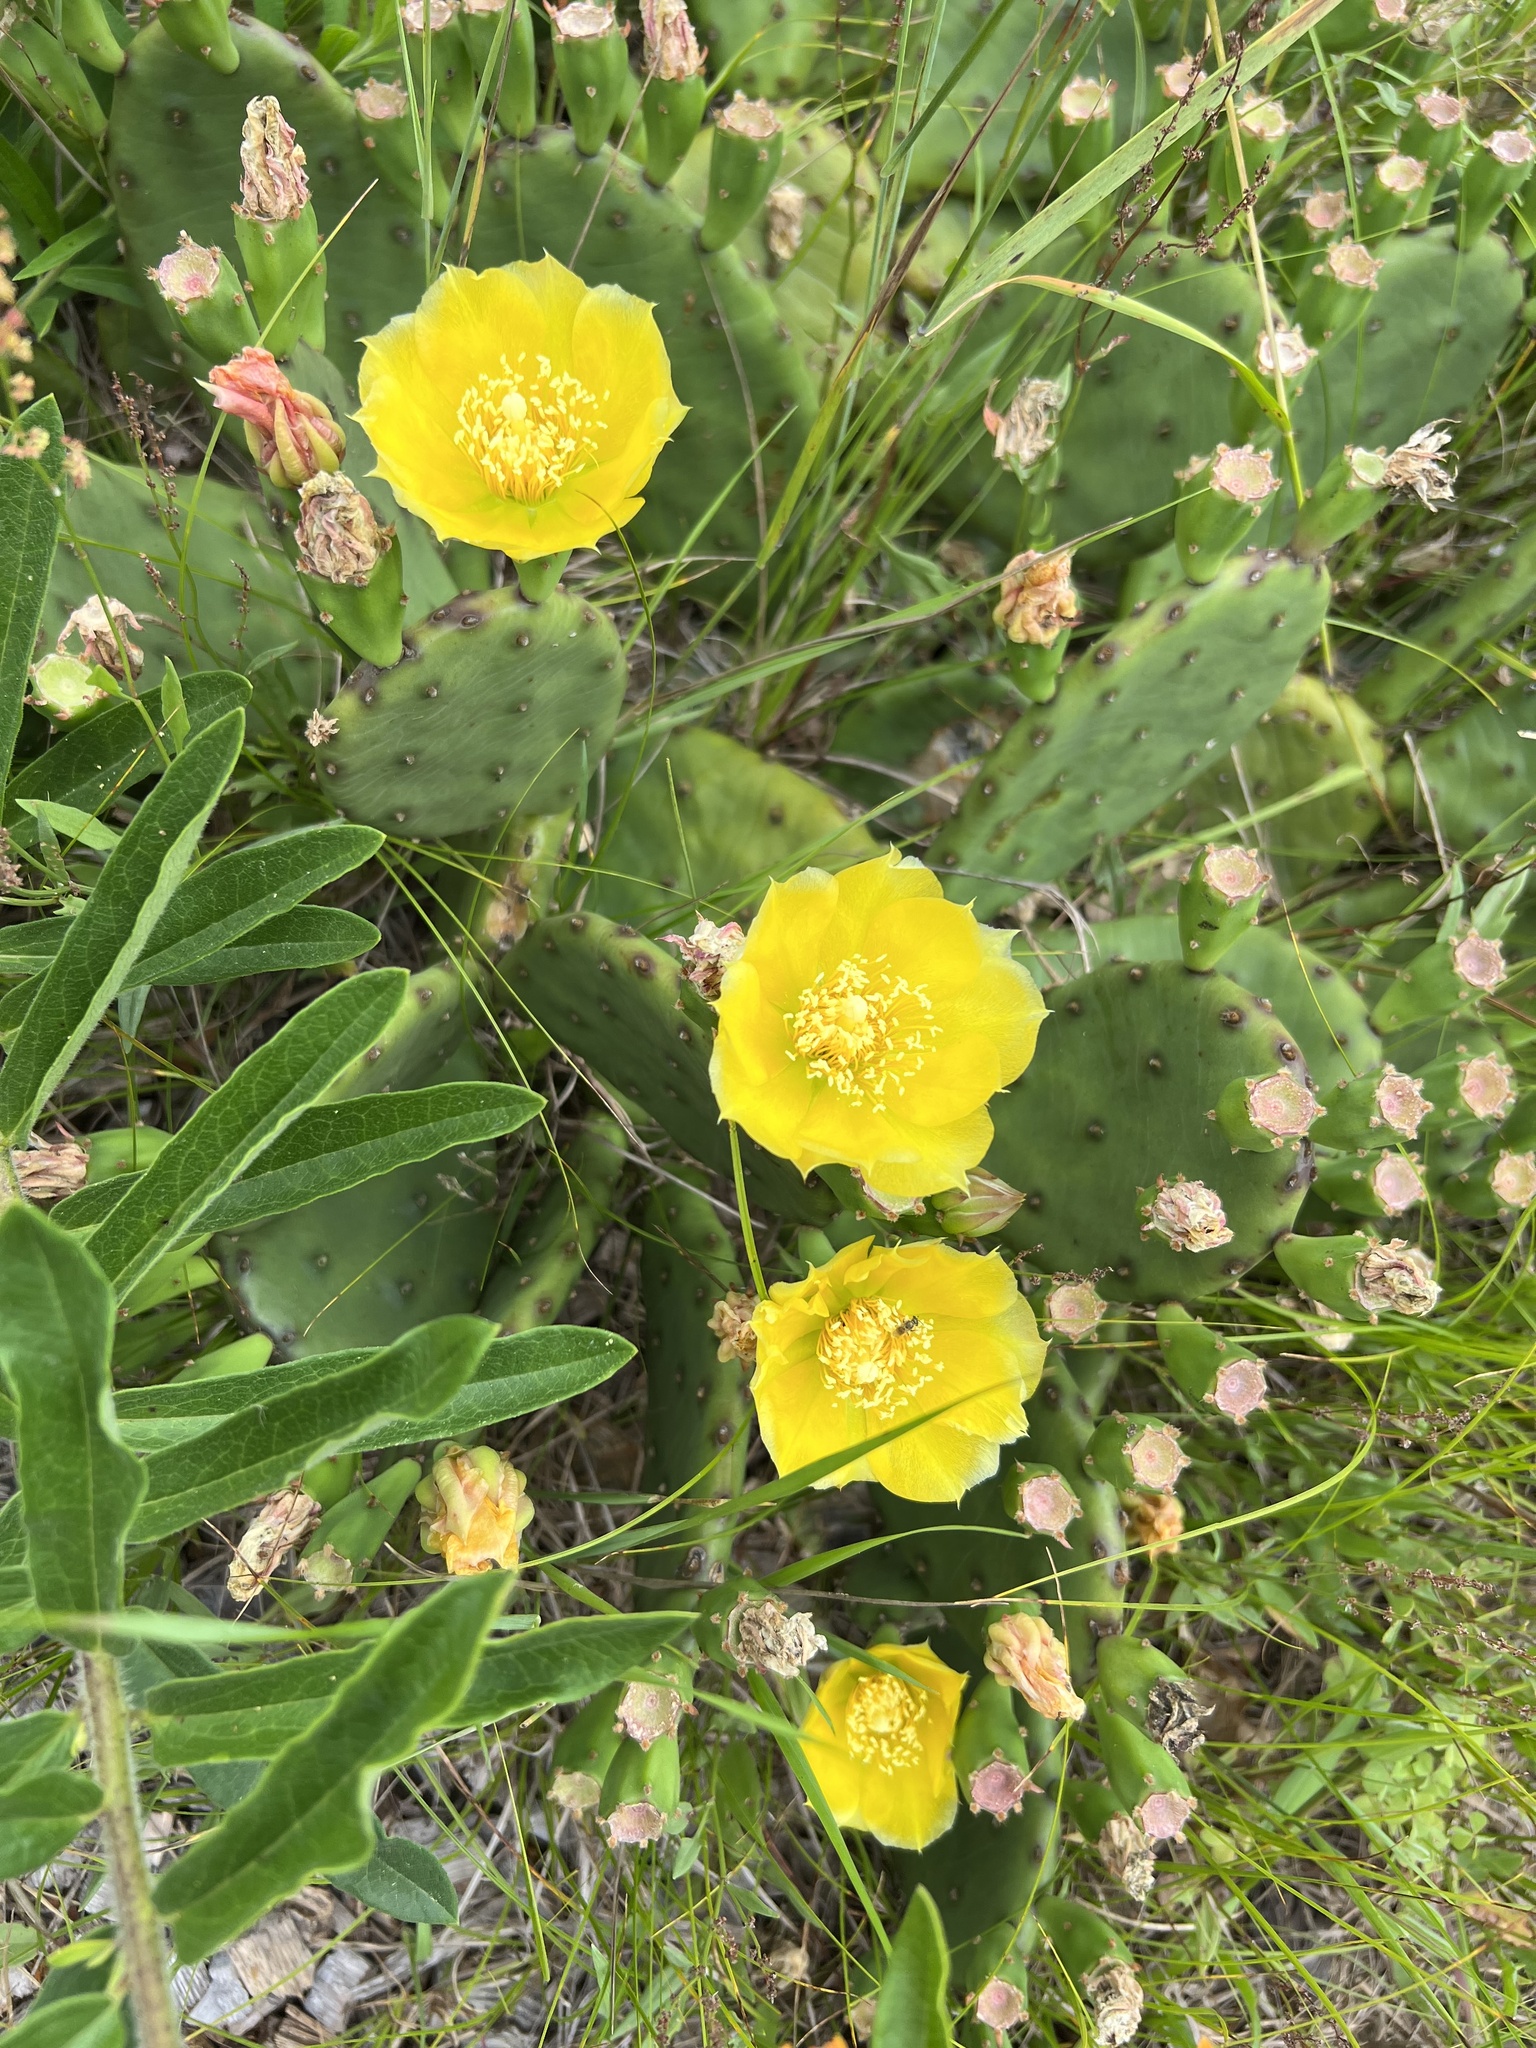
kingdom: Plantae
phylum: Tracheophyta
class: Magnoliopsida
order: Caryophyllales
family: Cactaceae
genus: Opuntia
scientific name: Opuntia humifusa
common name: Eastern prickly-pear
